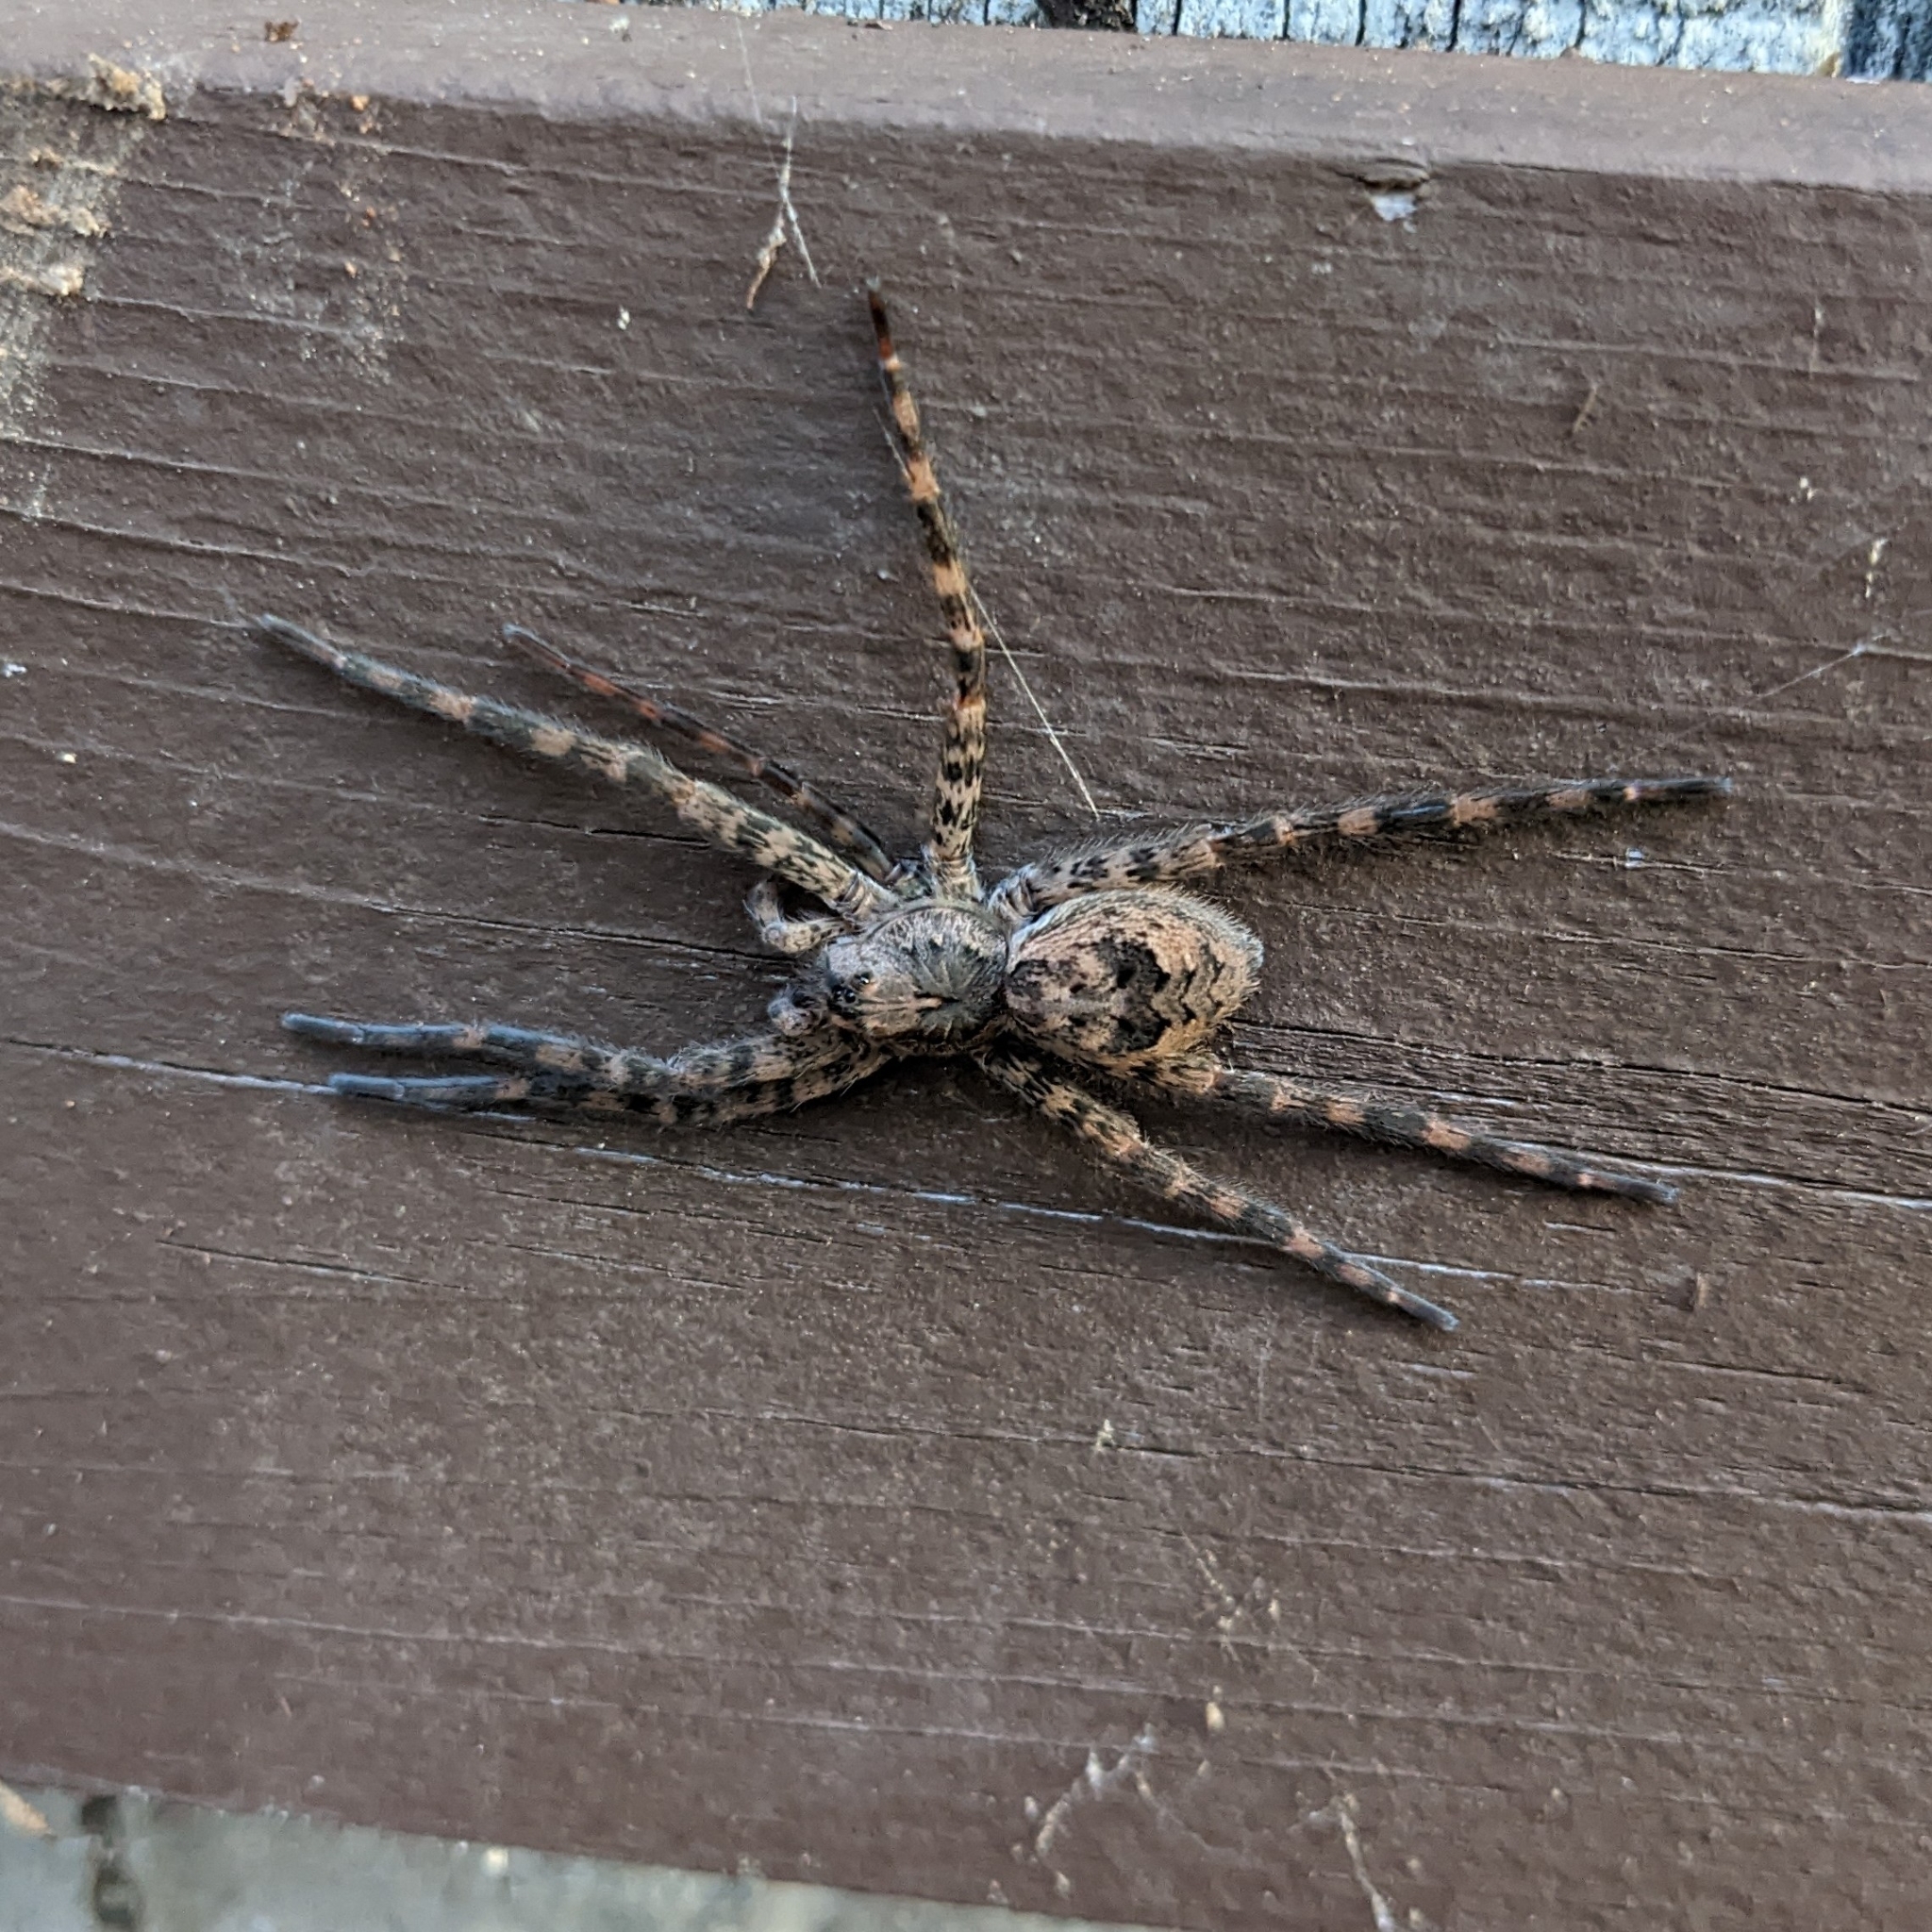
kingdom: Animalia
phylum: Arthropoda
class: Arachnida
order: Araneae
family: Pisauridae
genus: Dolomedes
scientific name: Dolomedes tenebrosus
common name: Dark fishing spider
